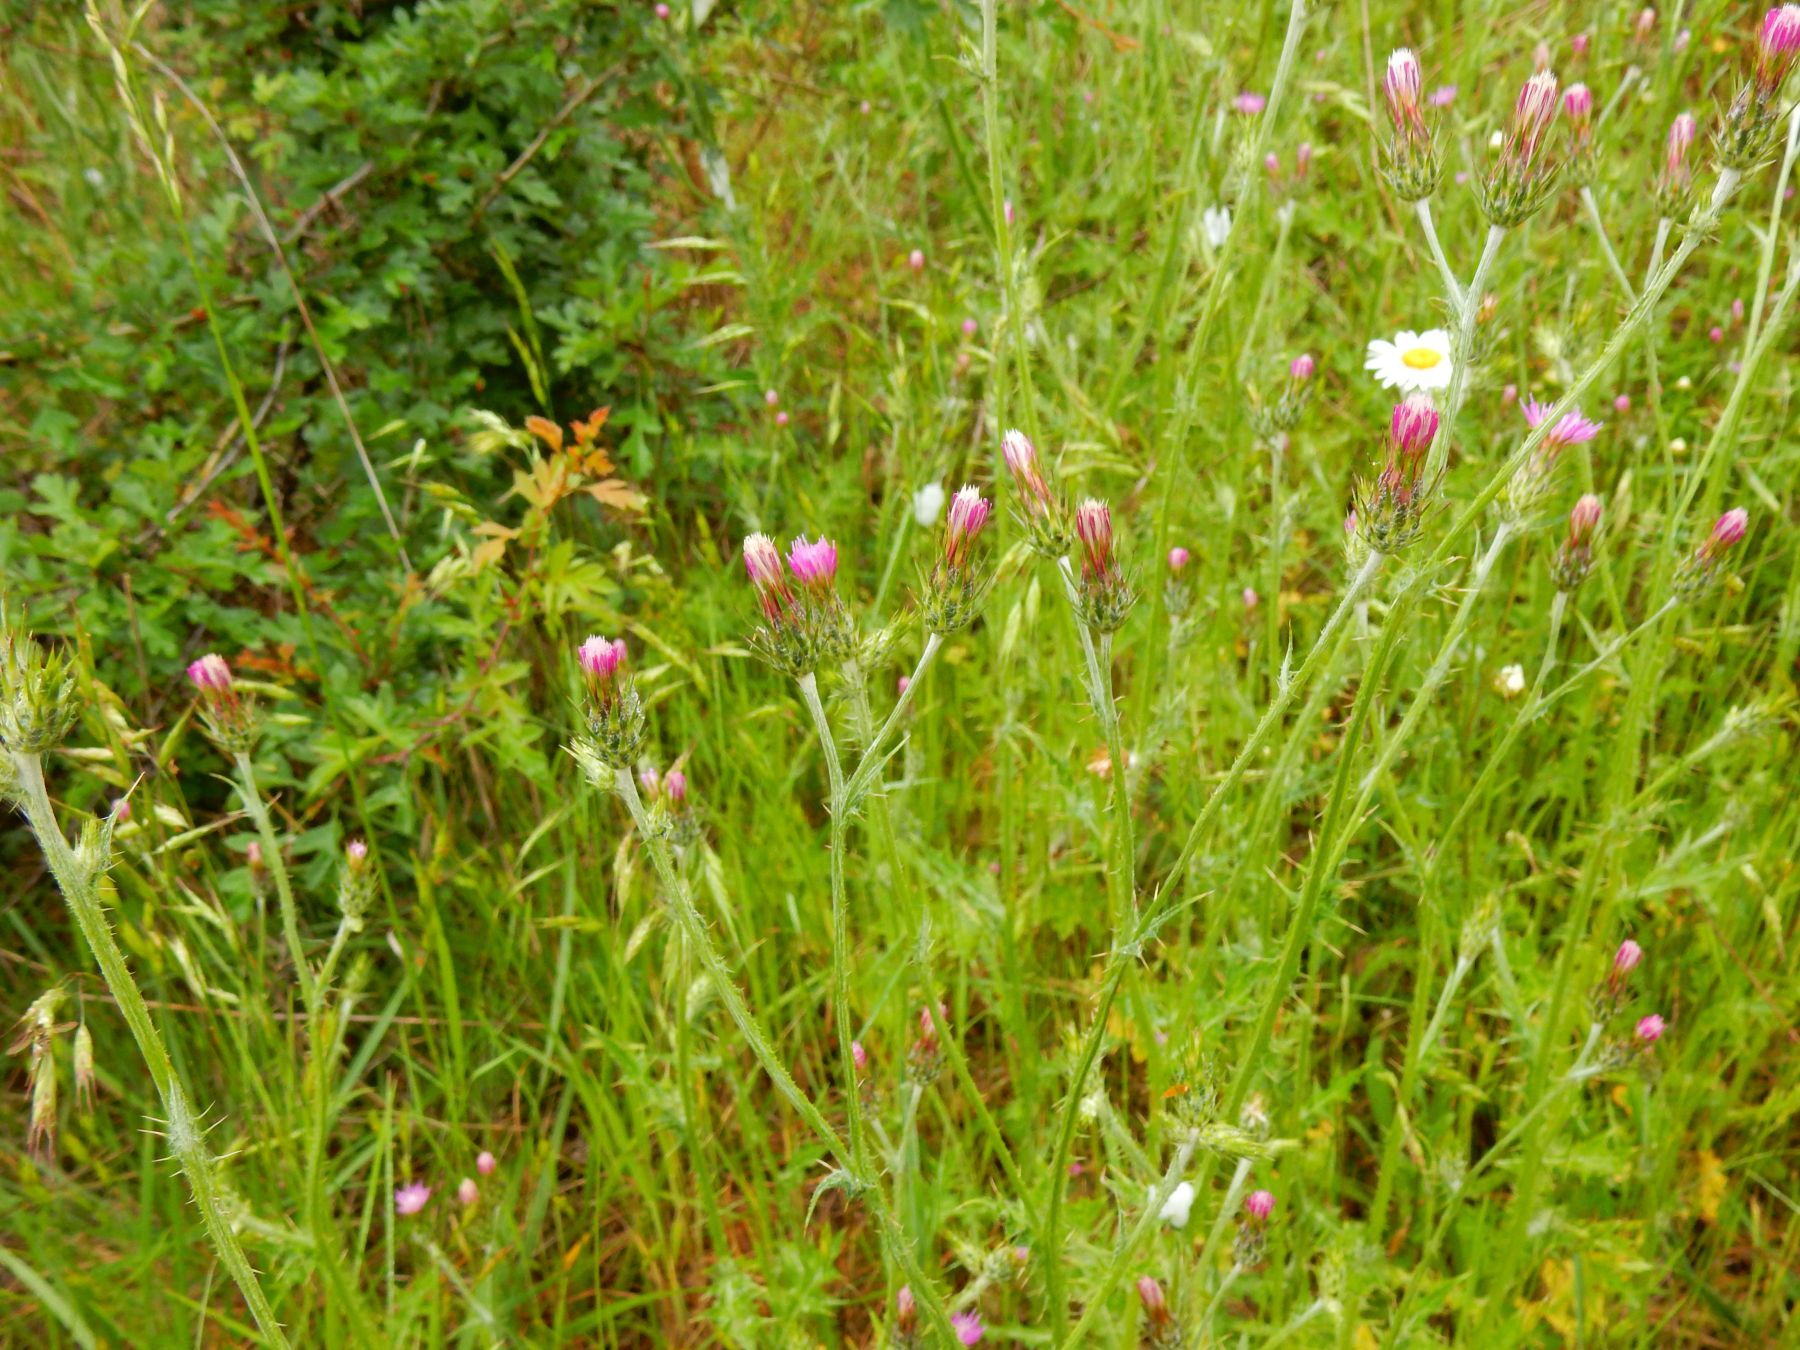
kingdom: Plantae
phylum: Tracheophyta
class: Magnoliopsida
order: Asterales
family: Asteraceae
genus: Carduus
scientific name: Carduus pycnocephalus
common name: Plymouth thistle
